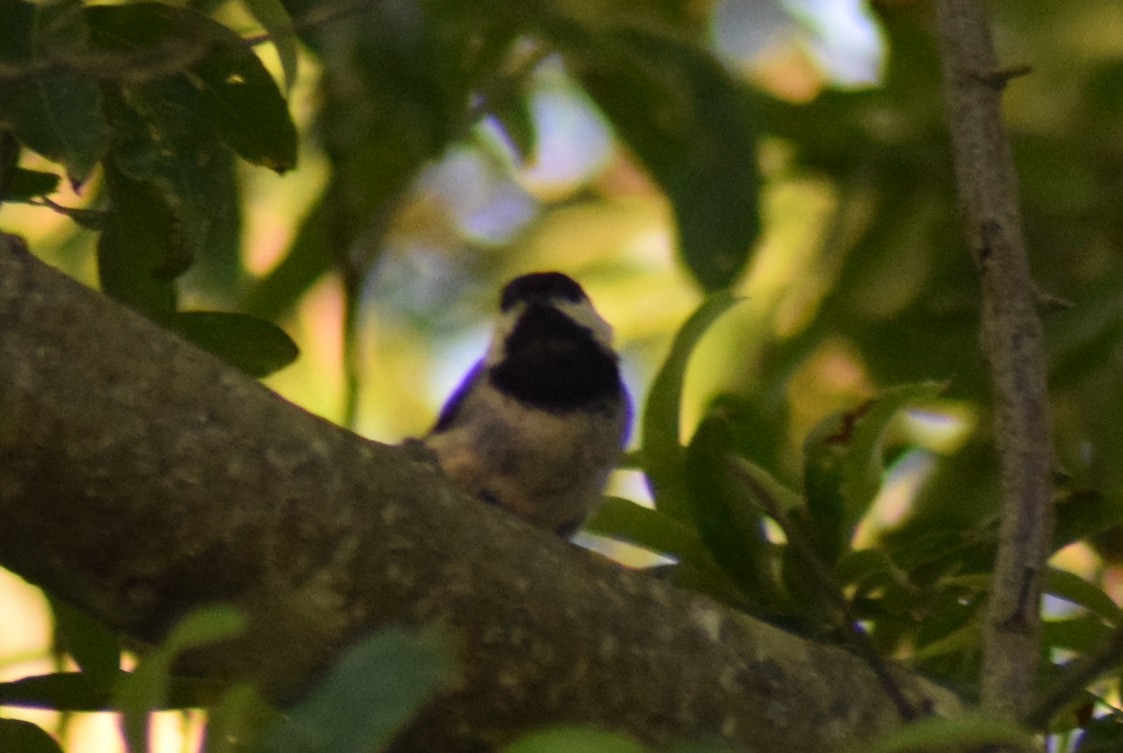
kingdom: Animalia
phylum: Chordata
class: Aves
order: Passeriformes
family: Paridae
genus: Poecile
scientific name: Poecile carolinensis
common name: Carolina chickadee
